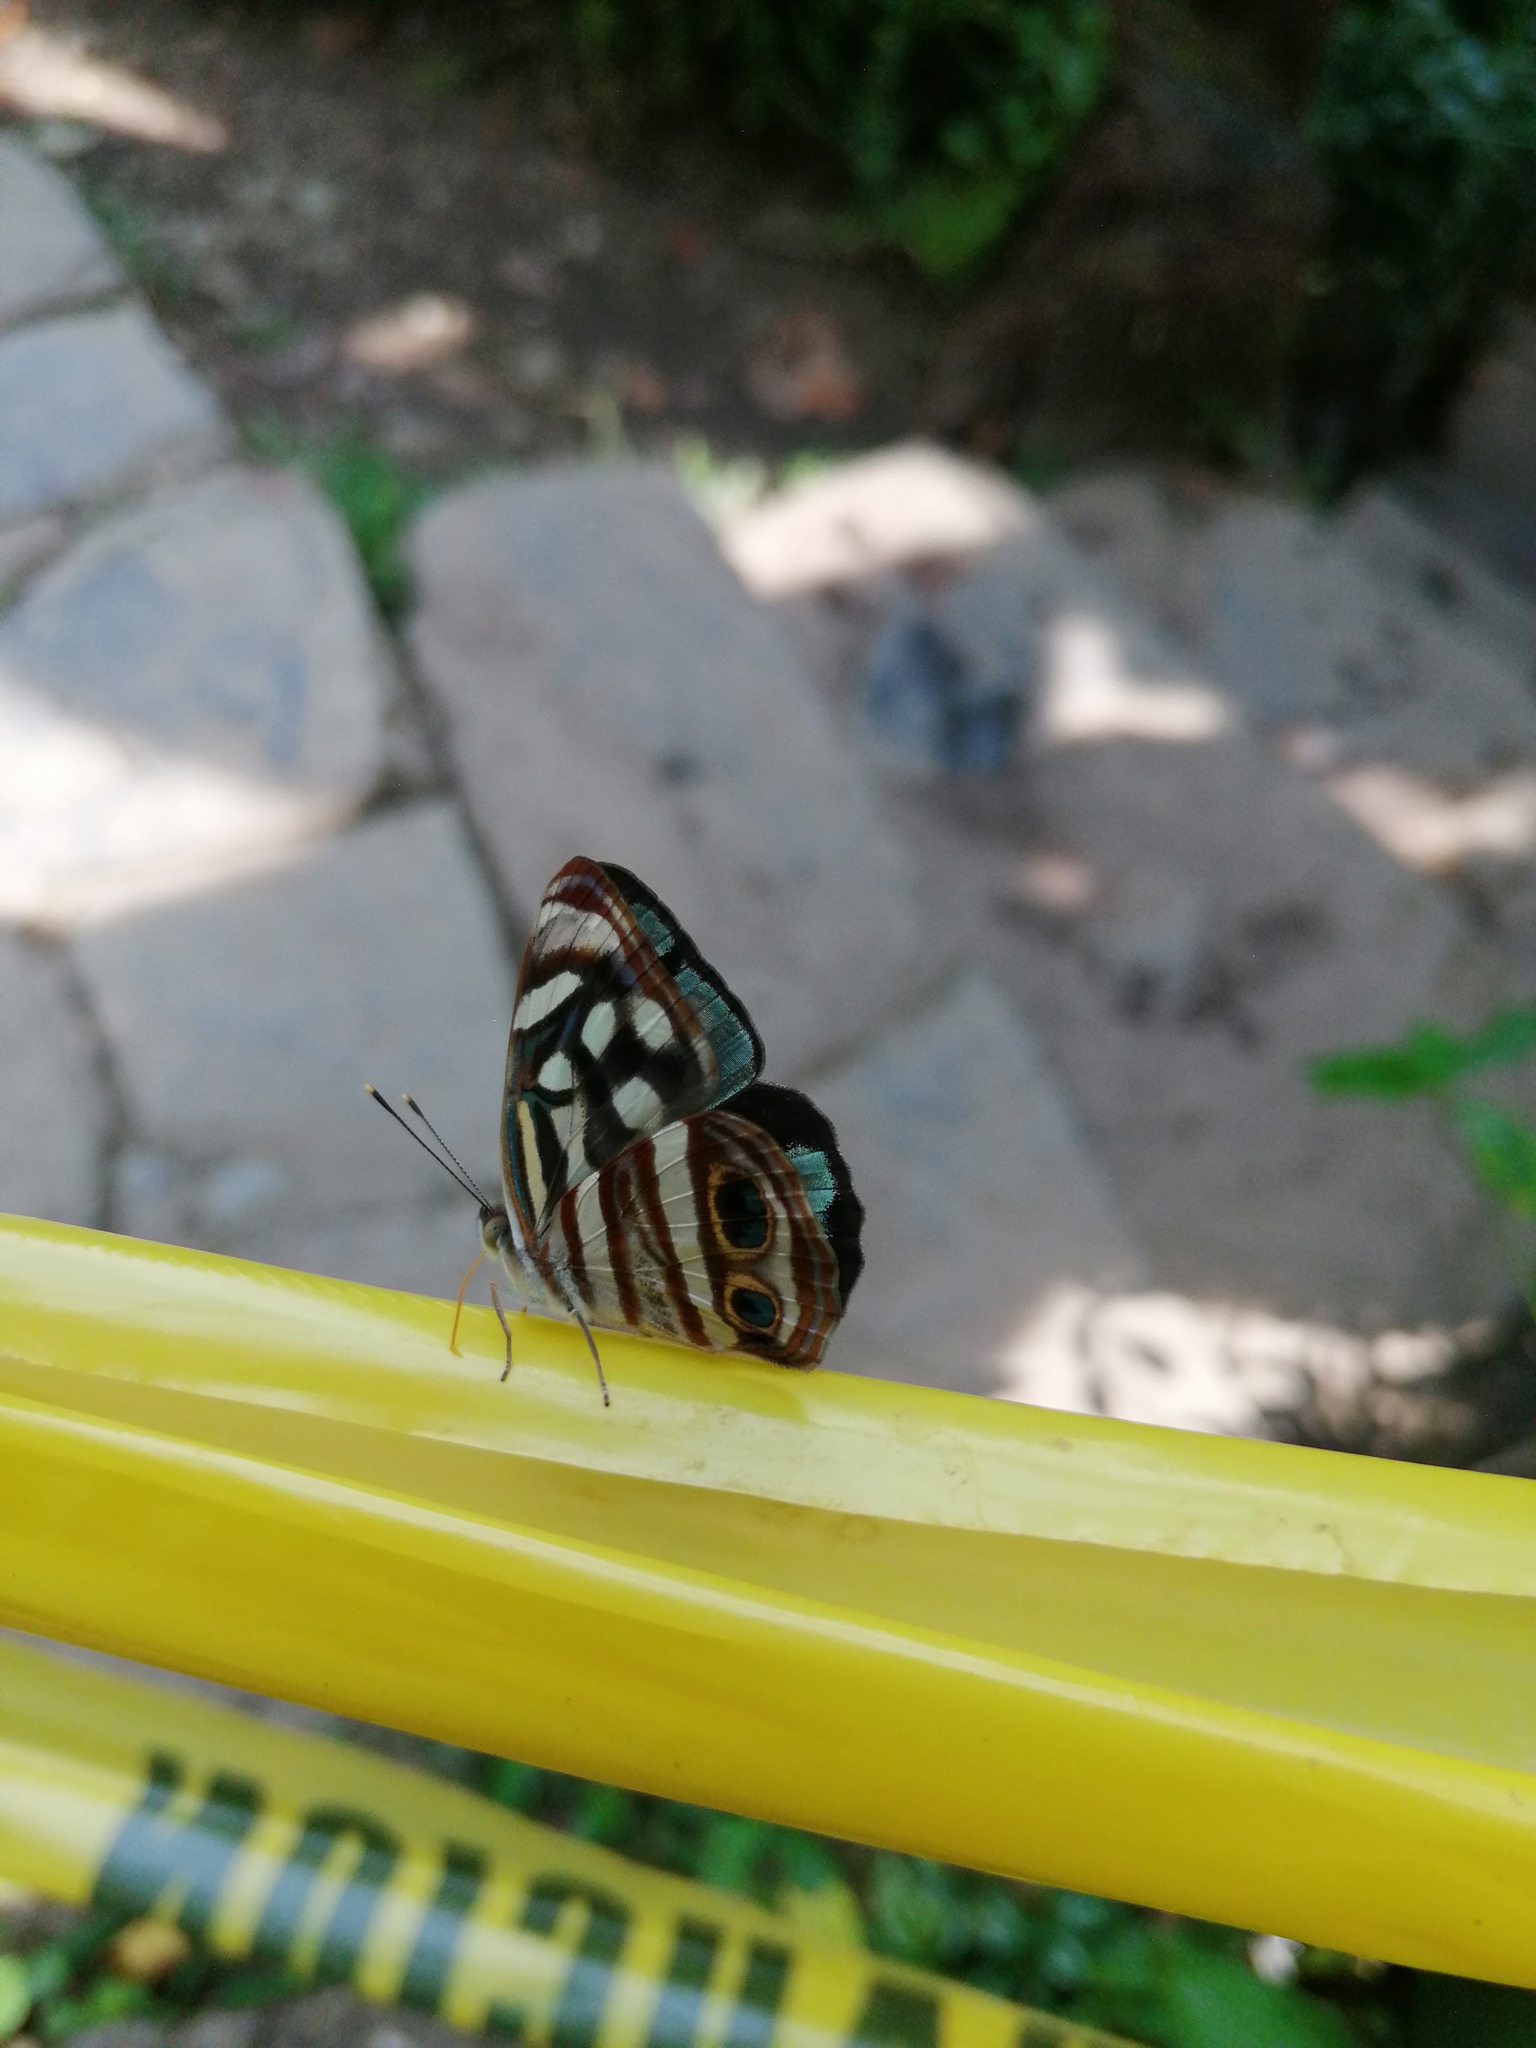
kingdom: Animalia
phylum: Arthropoda
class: Insecta
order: Lepidoptera
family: Nymphalidae
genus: Dynamine
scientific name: Dynamine mylitta
